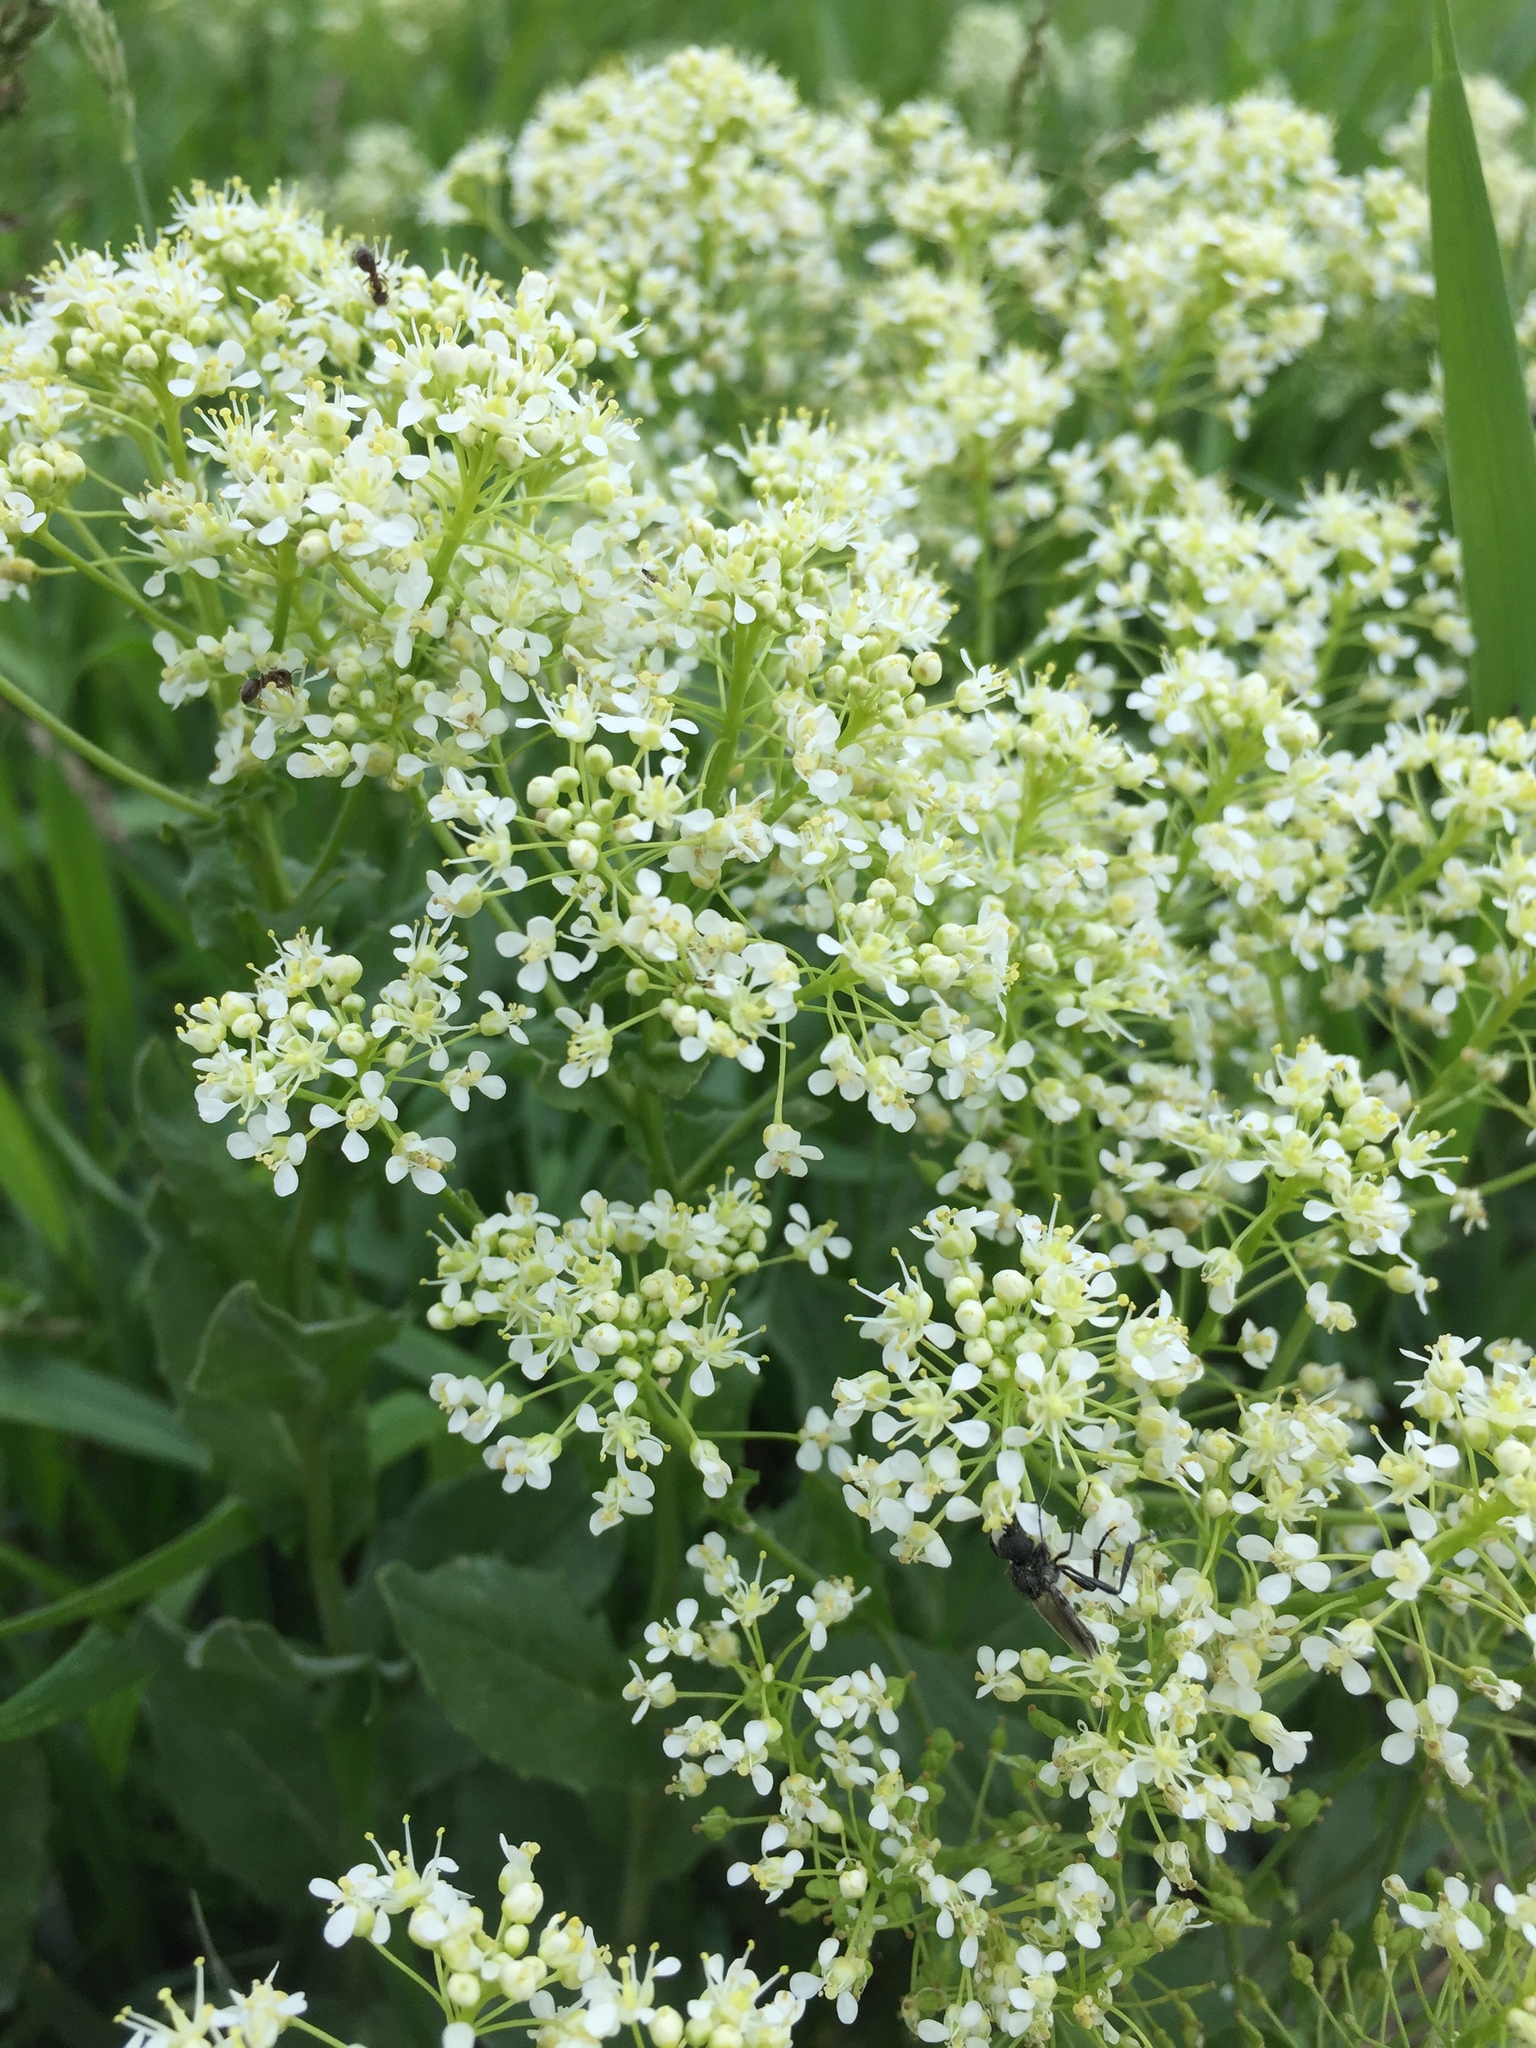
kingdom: Plantae
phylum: Tracheophyta
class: Magnoliopsida
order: Brassicales
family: Brassicaceae
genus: Lepidium
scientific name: Lepidium draba
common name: Hoary cress
